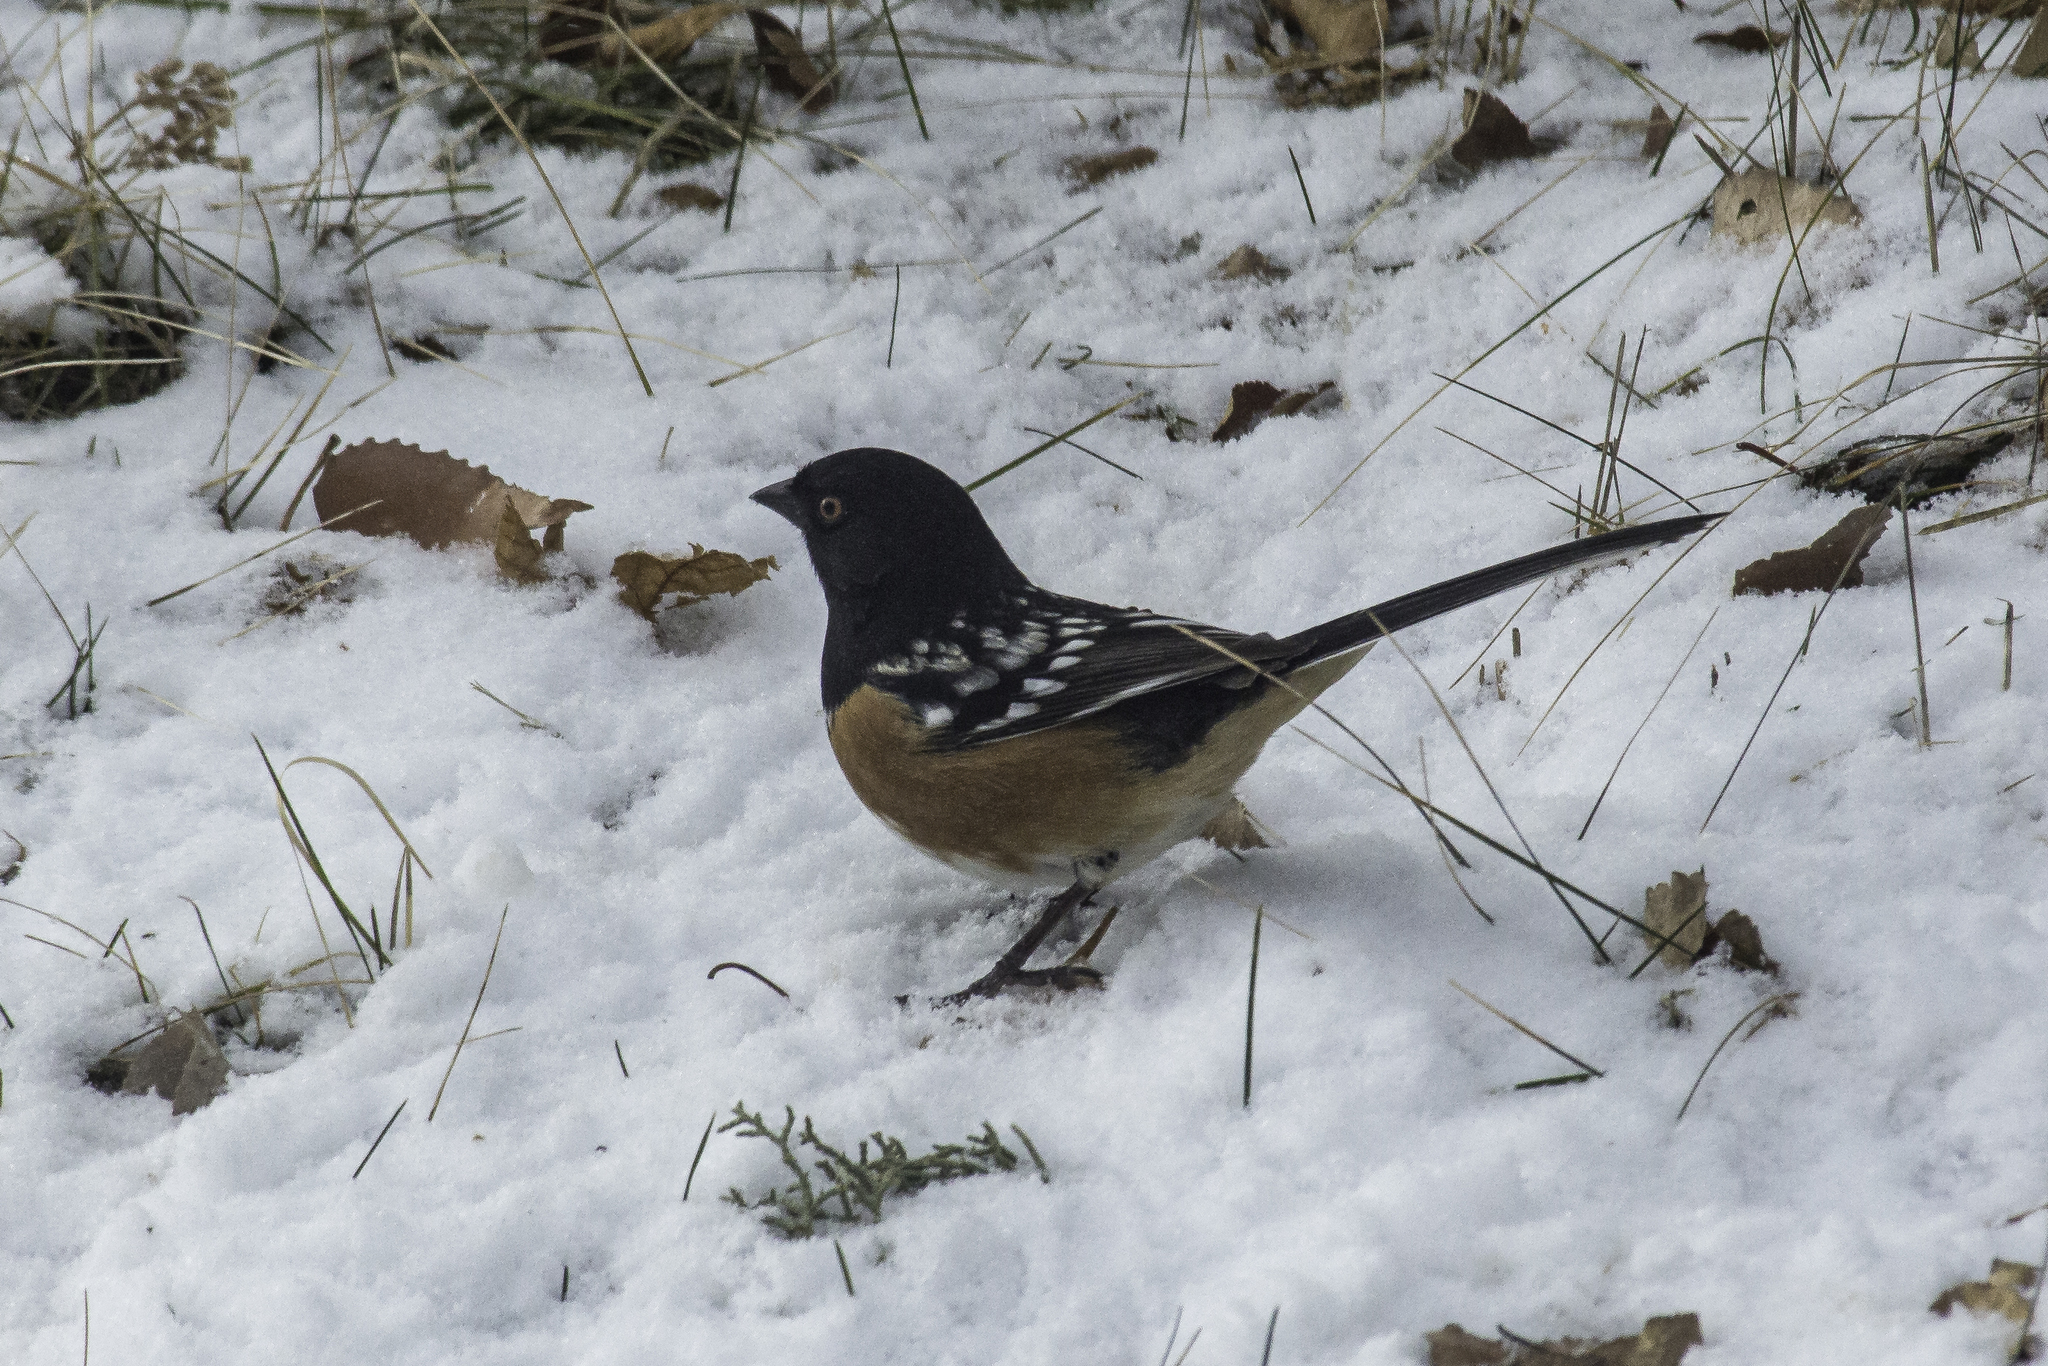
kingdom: Animalia
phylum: Chordata
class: Aves
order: Passeriformes
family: Passerellidae
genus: Pipilo
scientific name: Pipilo maculatus
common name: Spotted towhee
